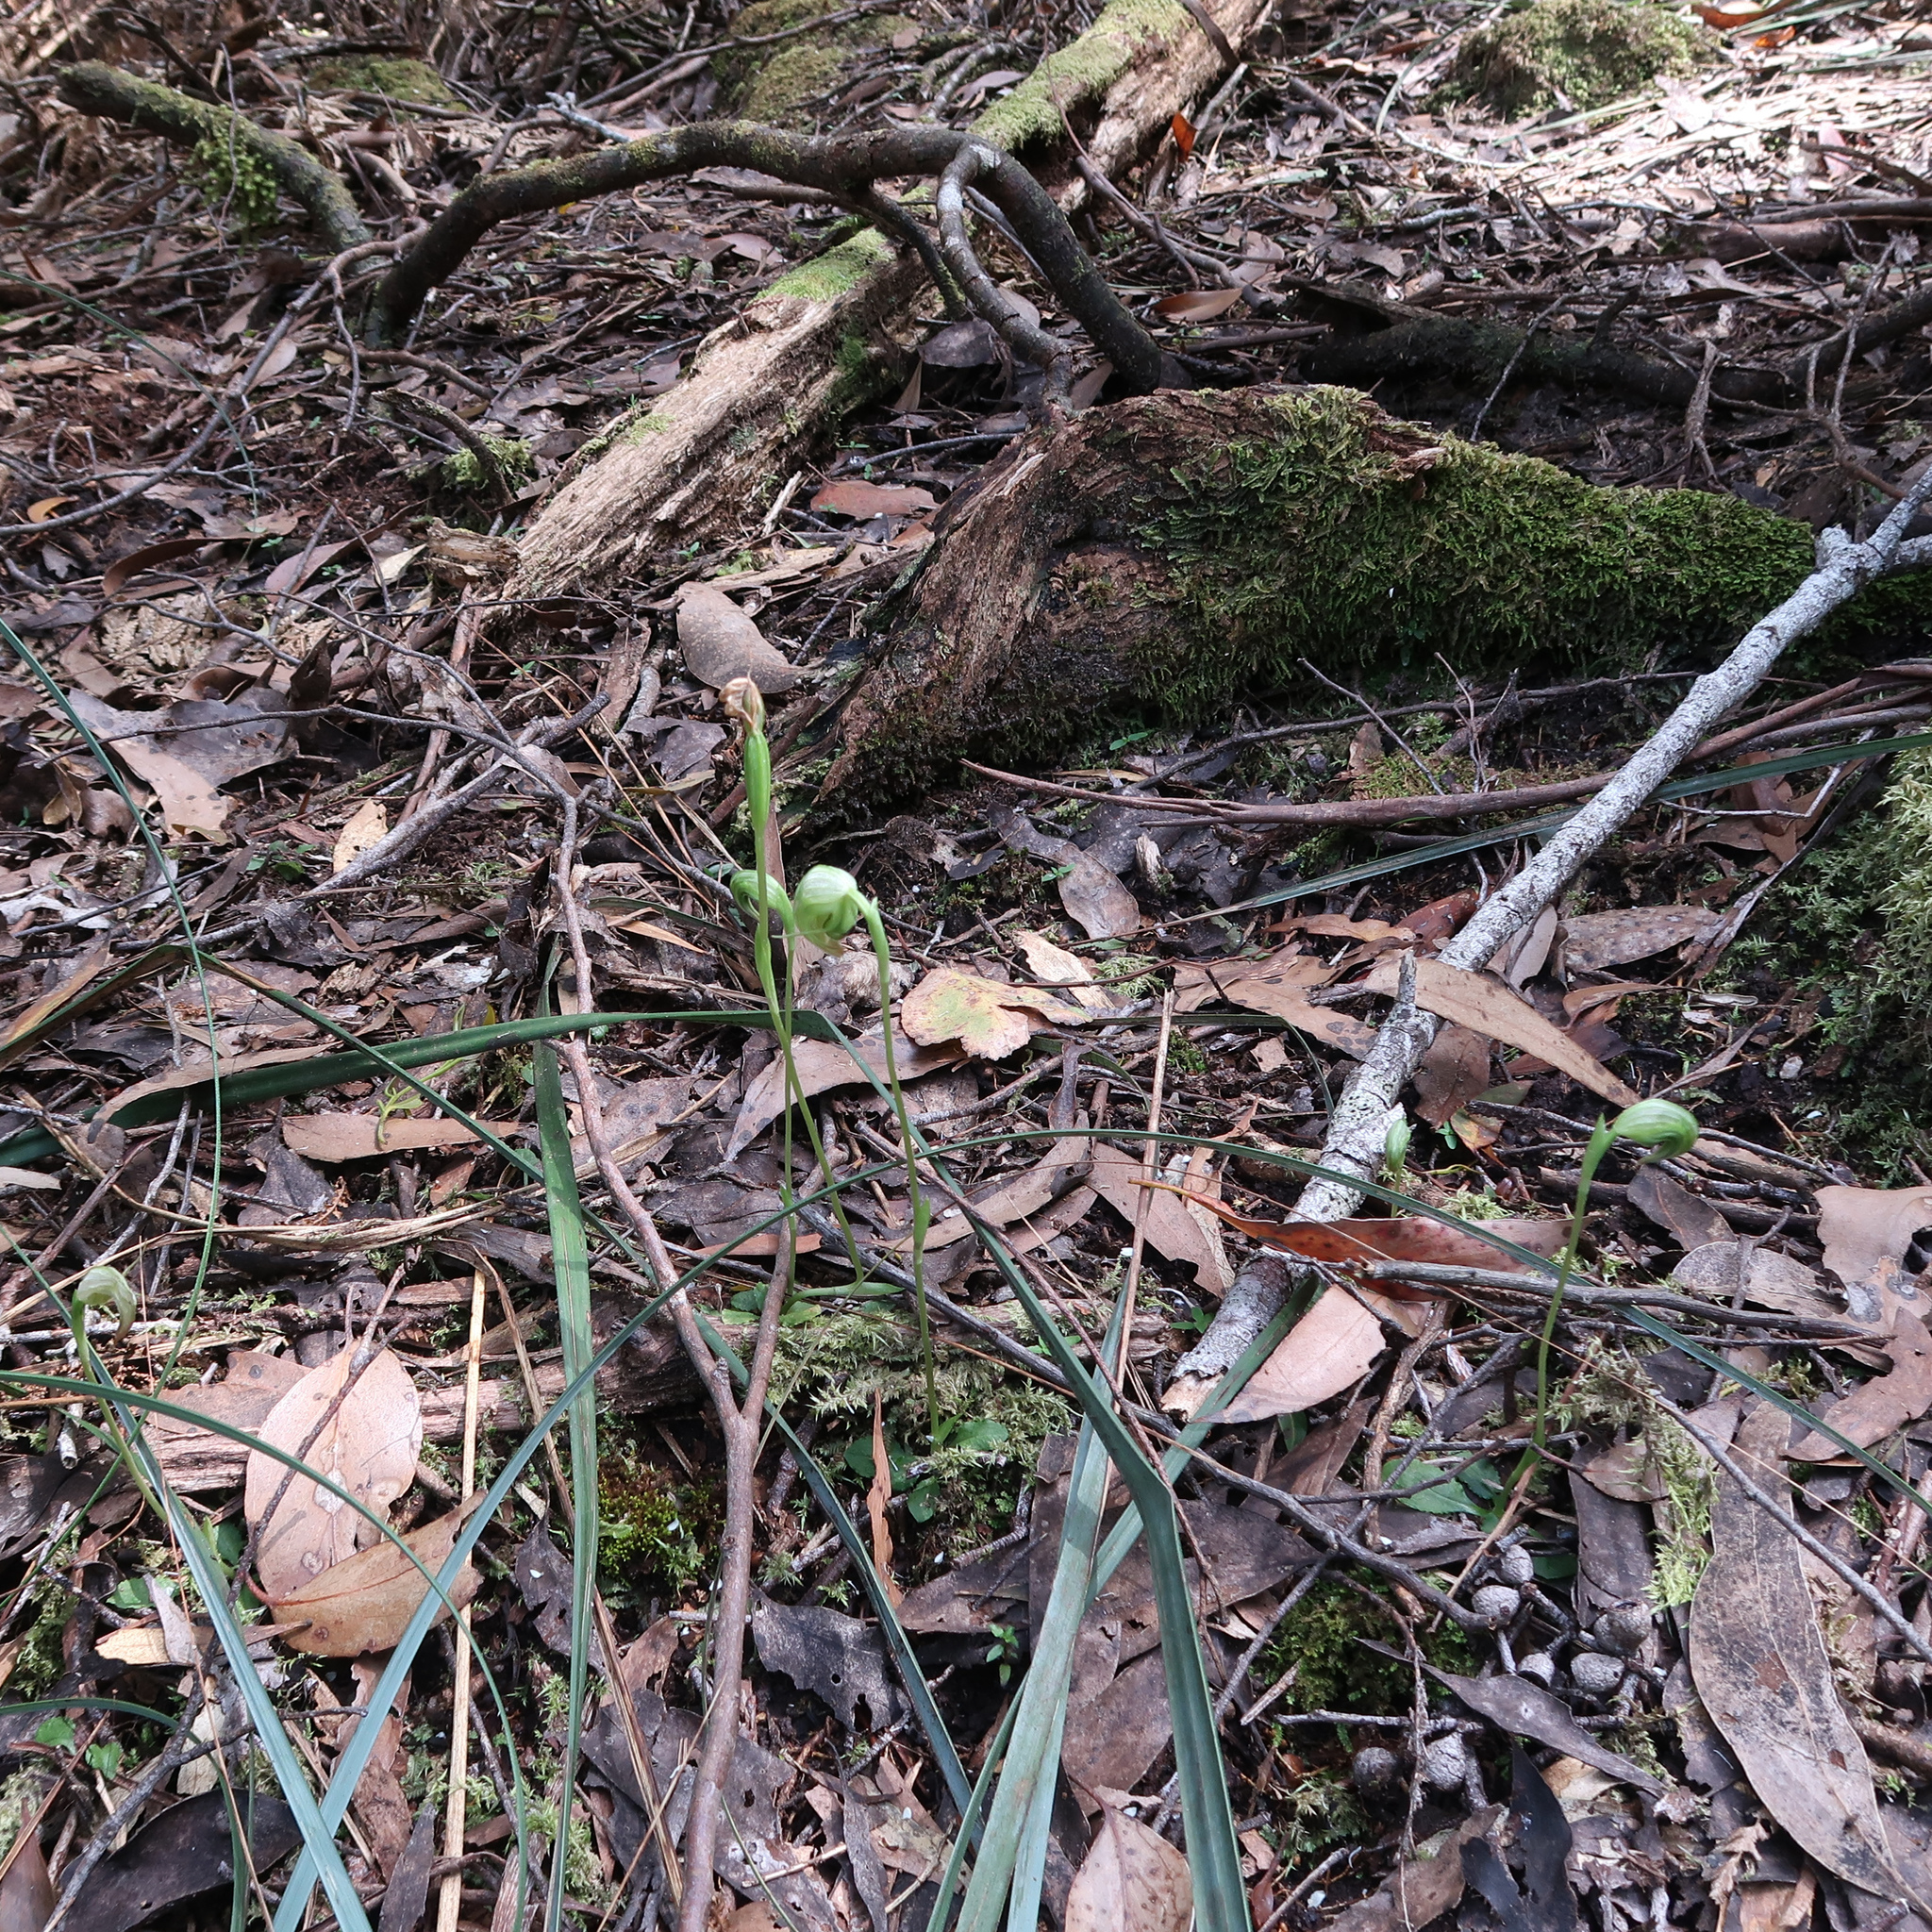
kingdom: Plantae
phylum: Tracheophyta
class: Liliopsida
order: Asparagales
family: Orchidaceae
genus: Pterostylis
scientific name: Pterostylis nutans
